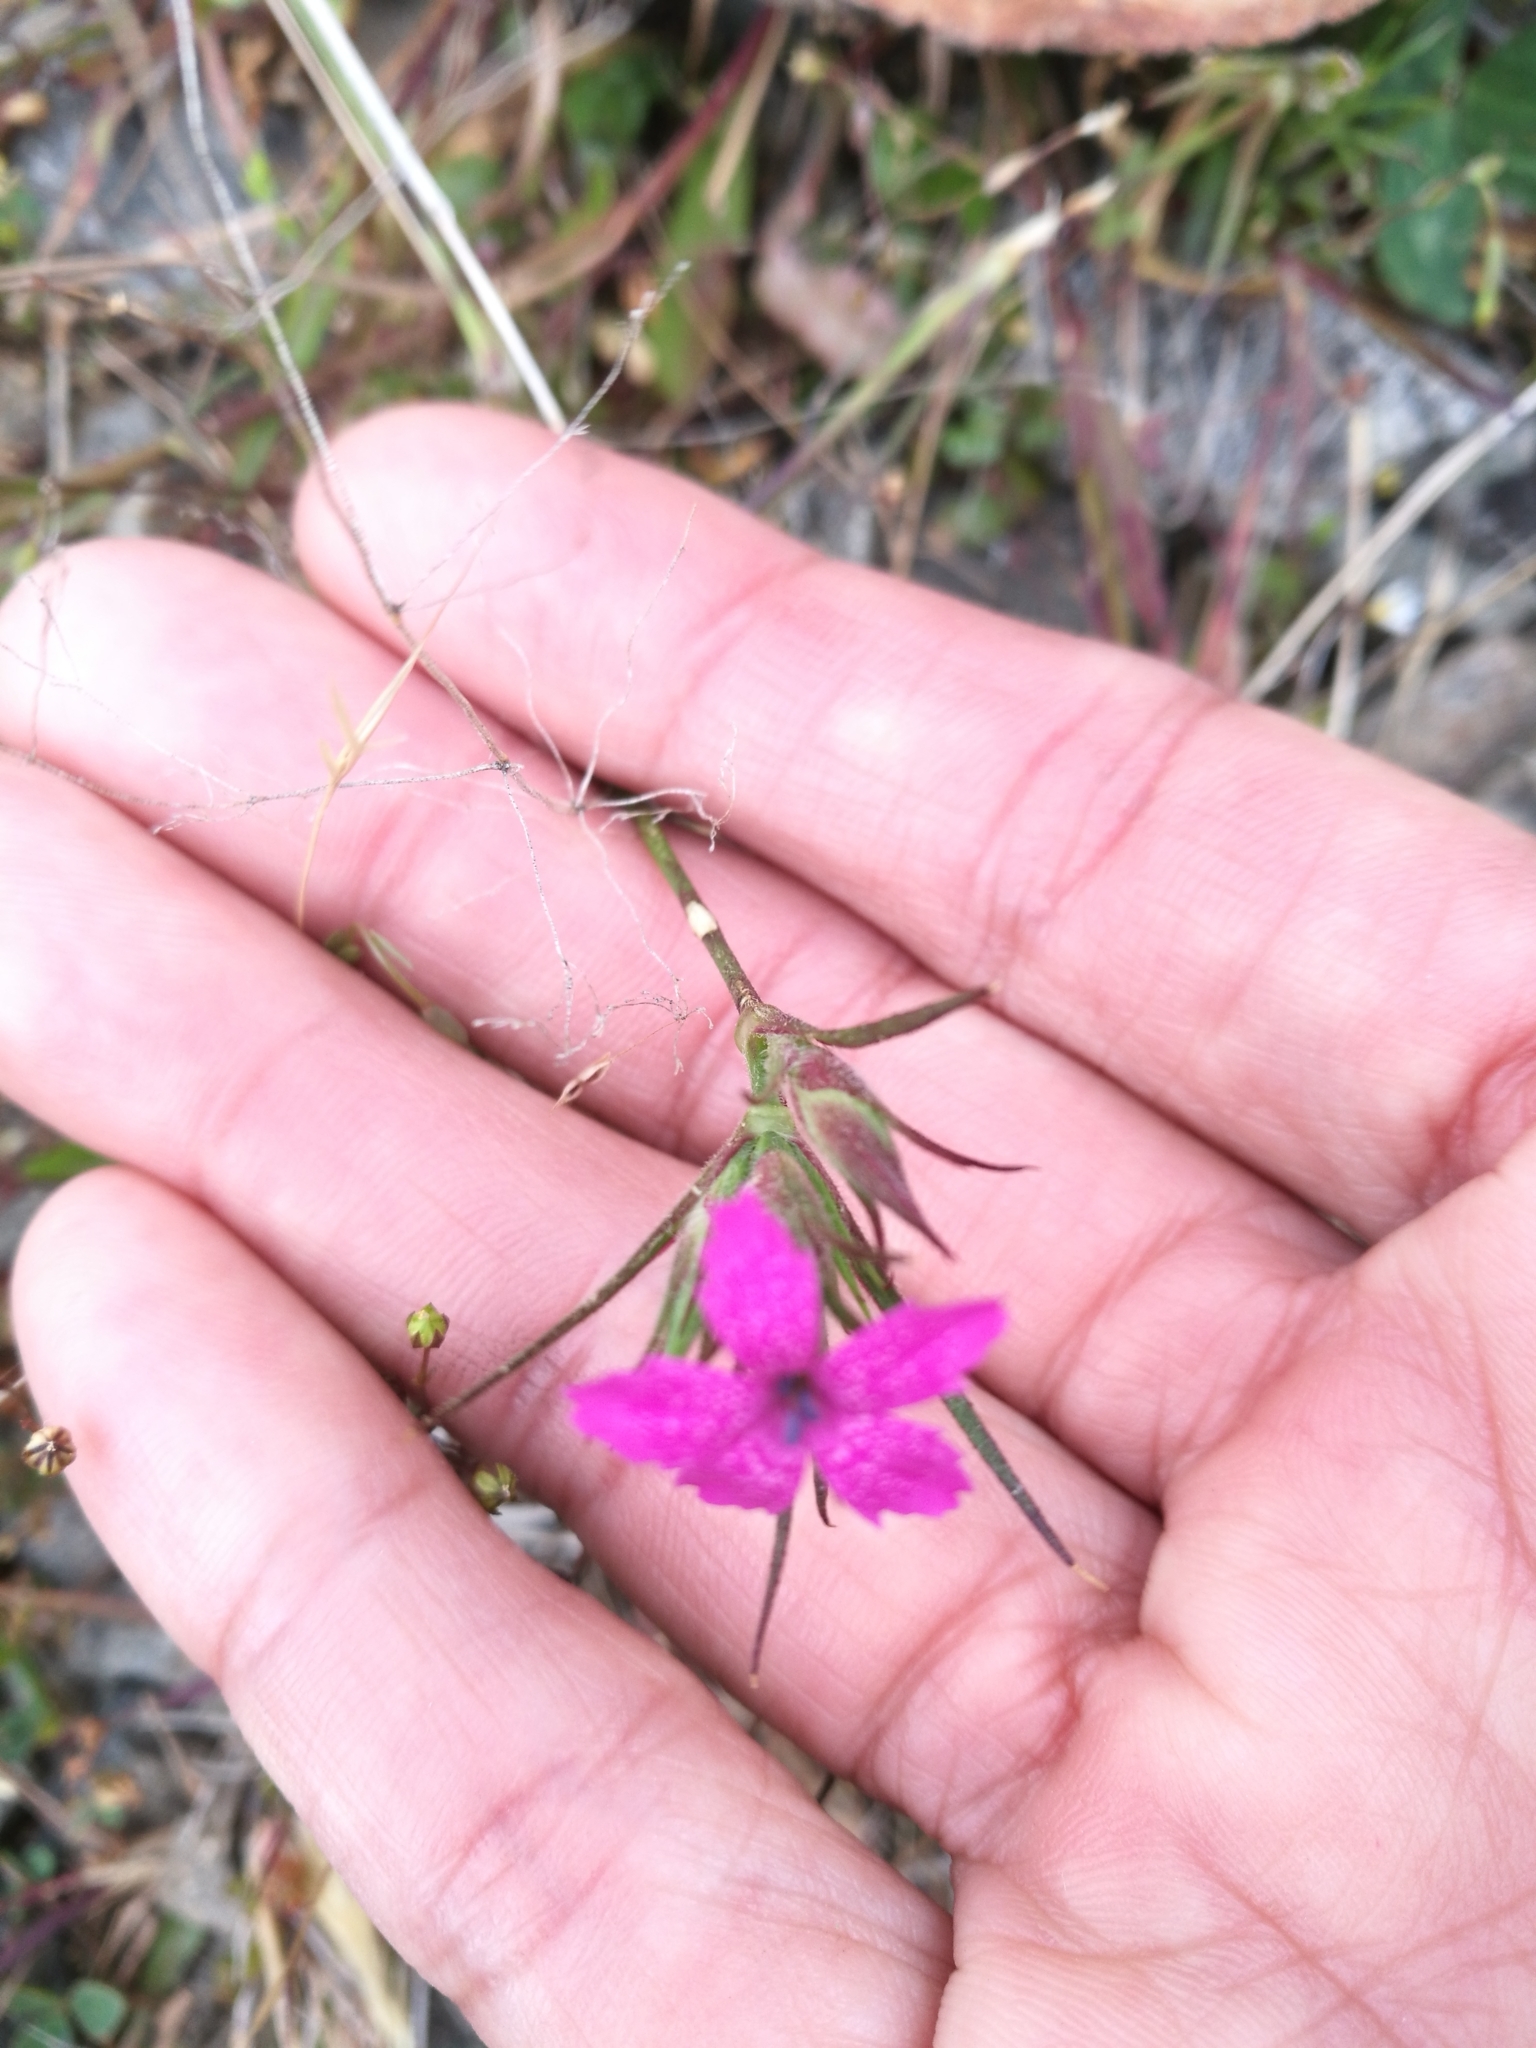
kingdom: Plantae
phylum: Tracheophyta
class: Magnoliopsida
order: Caryophyllales
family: Caryophyllaceae
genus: Dianthus
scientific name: Dianthus armeria
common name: Deptford pink
